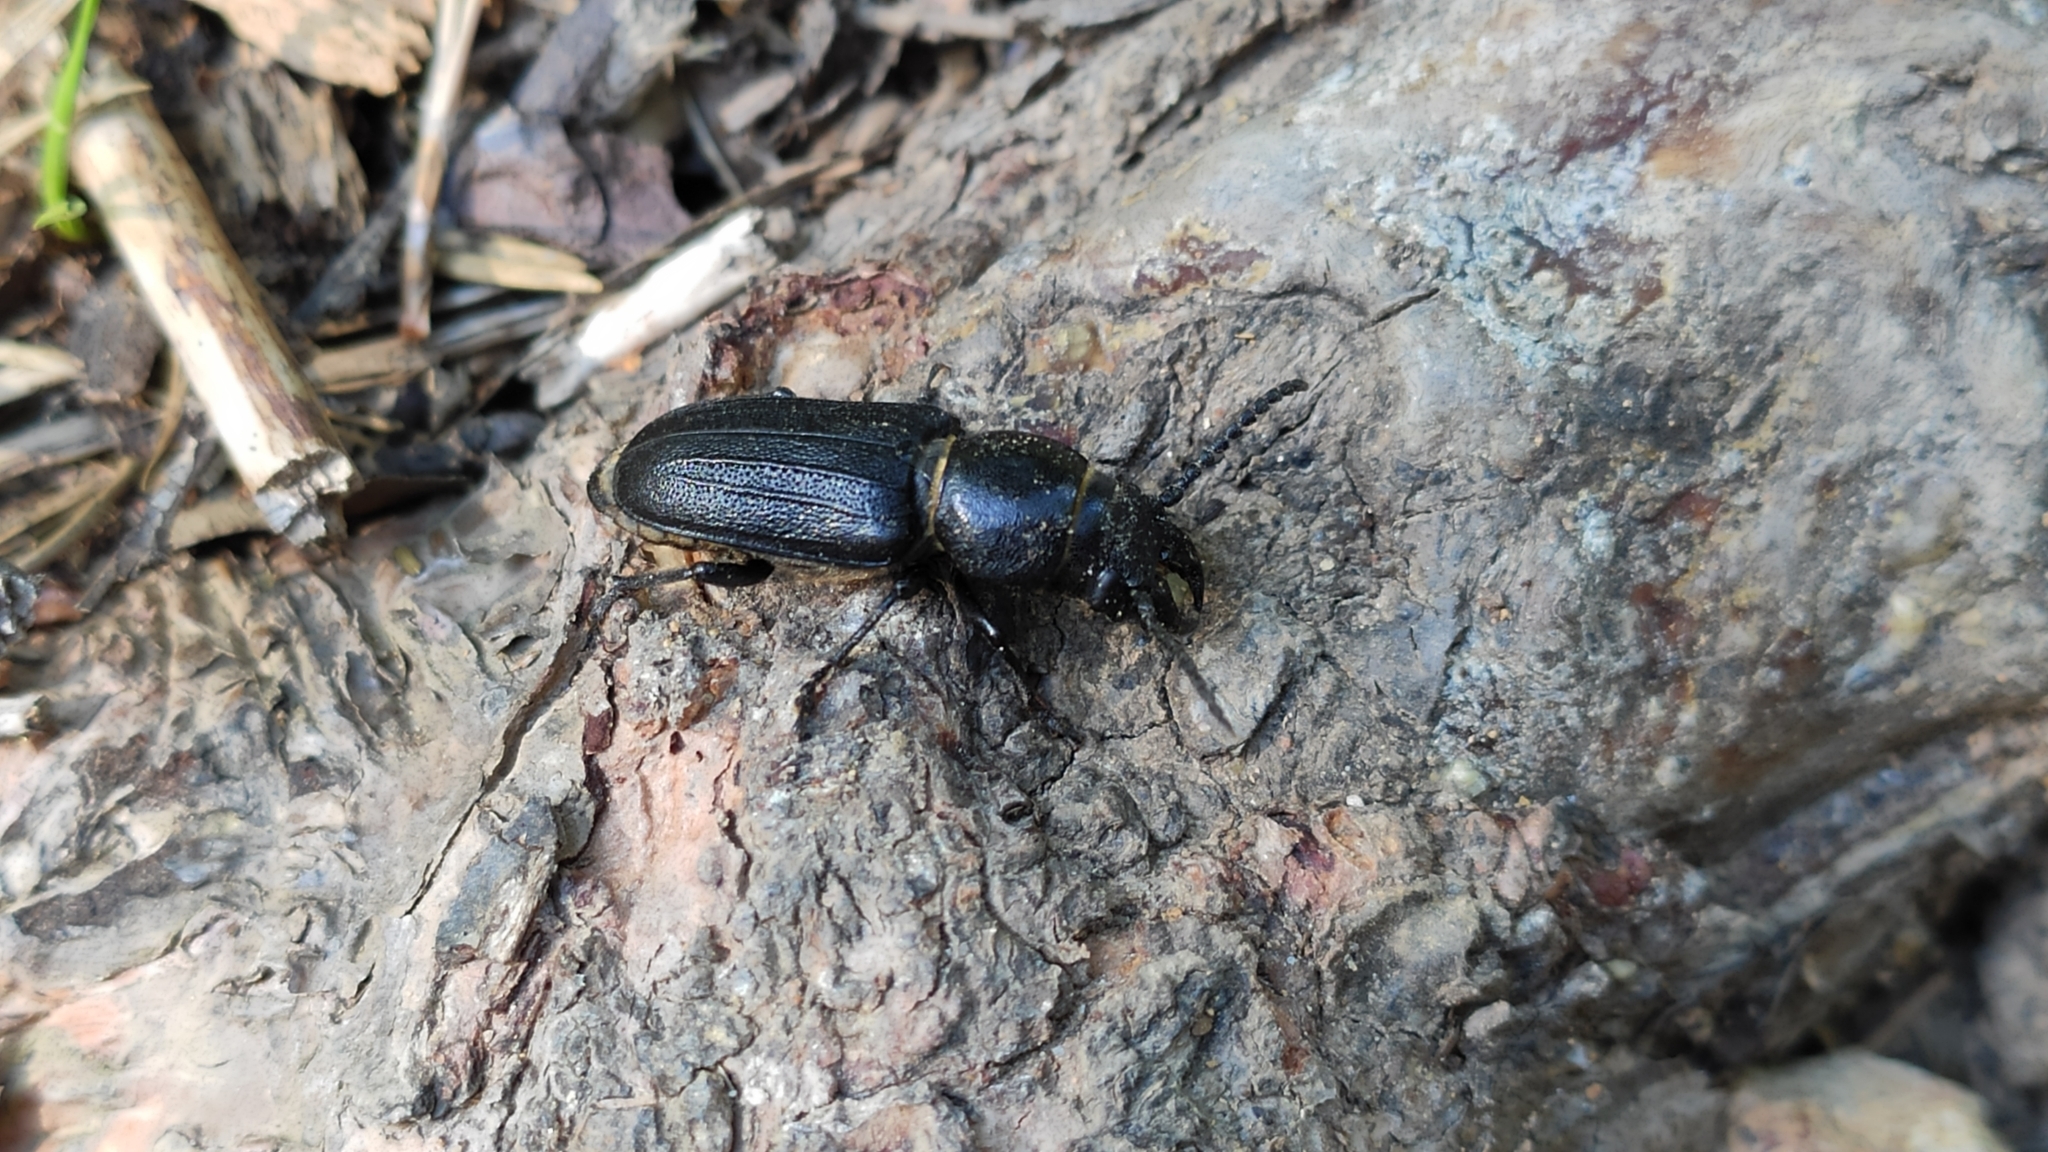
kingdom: Animalia
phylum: Arthropoda
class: Insecta
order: Coleoptera
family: Cerambycidae
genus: Spondylis
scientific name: Spondylis buprestoides
